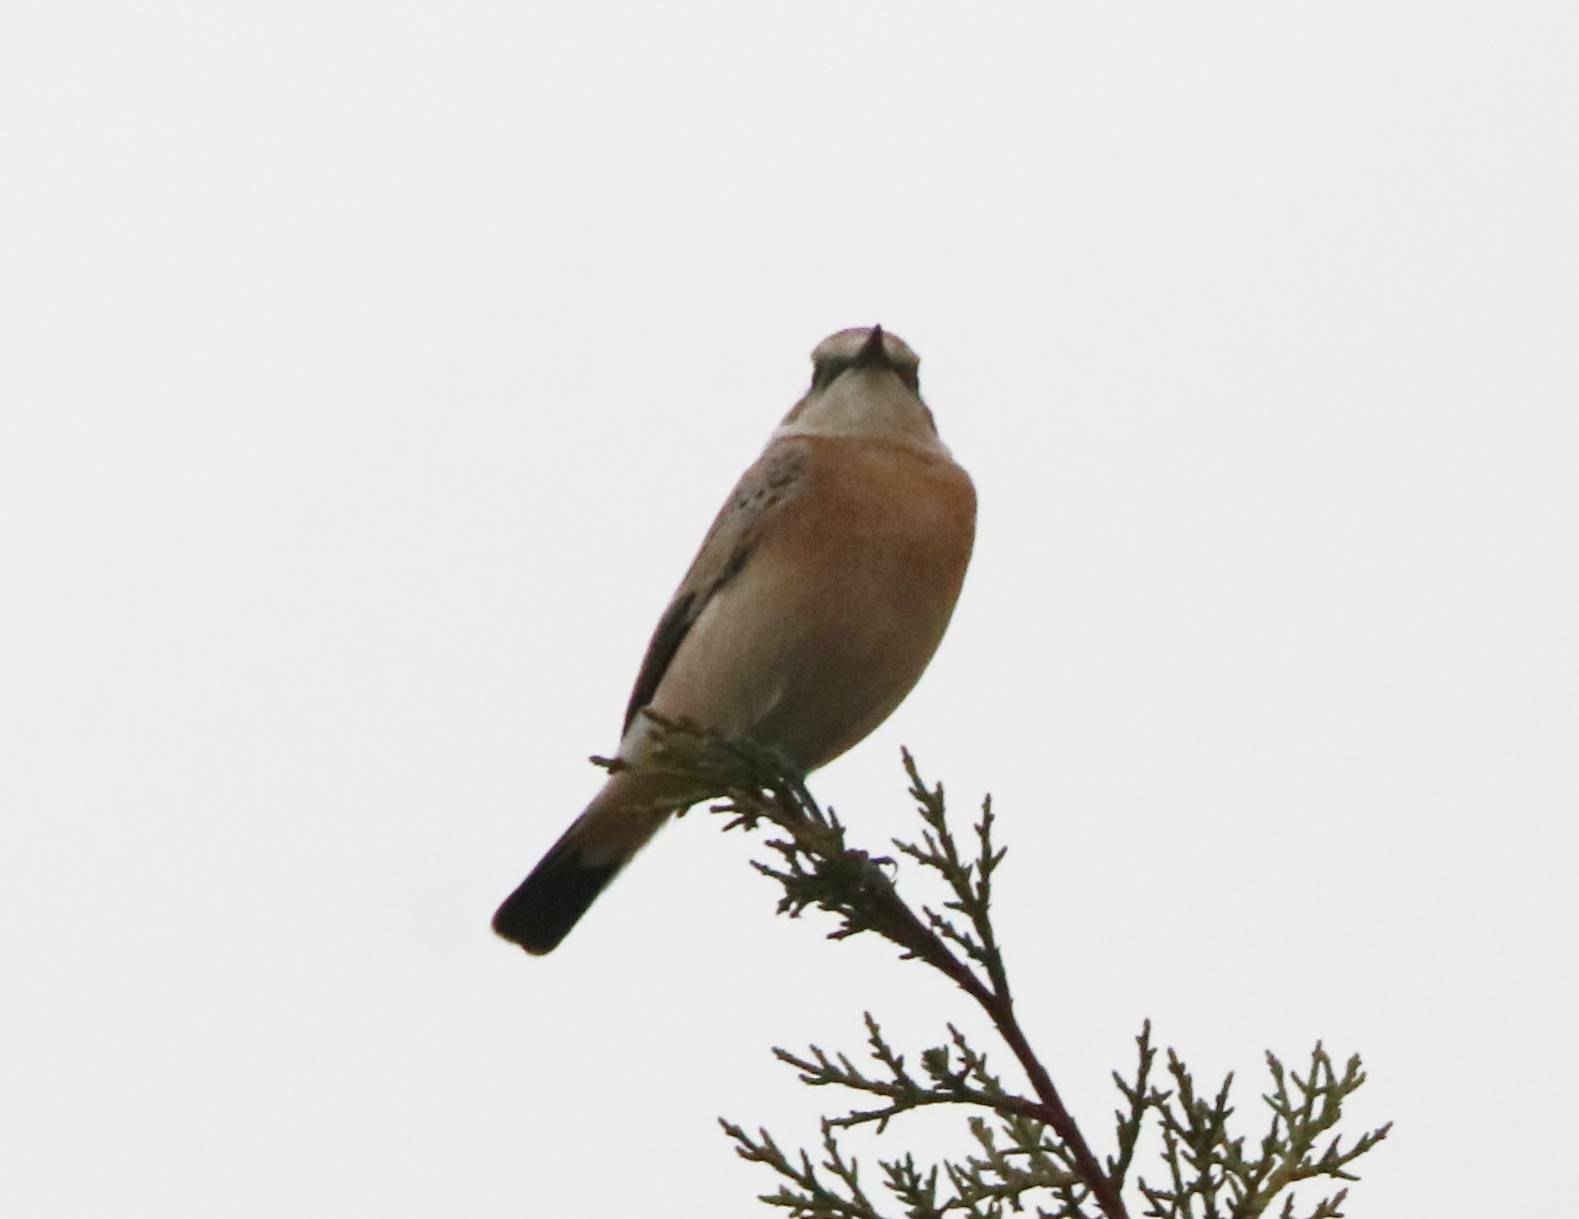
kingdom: Animalia
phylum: Chordata
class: Aves
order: Passeriformes
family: Muscicapidae
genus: Oenanthe
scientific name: Oenanthe hispanica
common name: Black-eared wheatear
